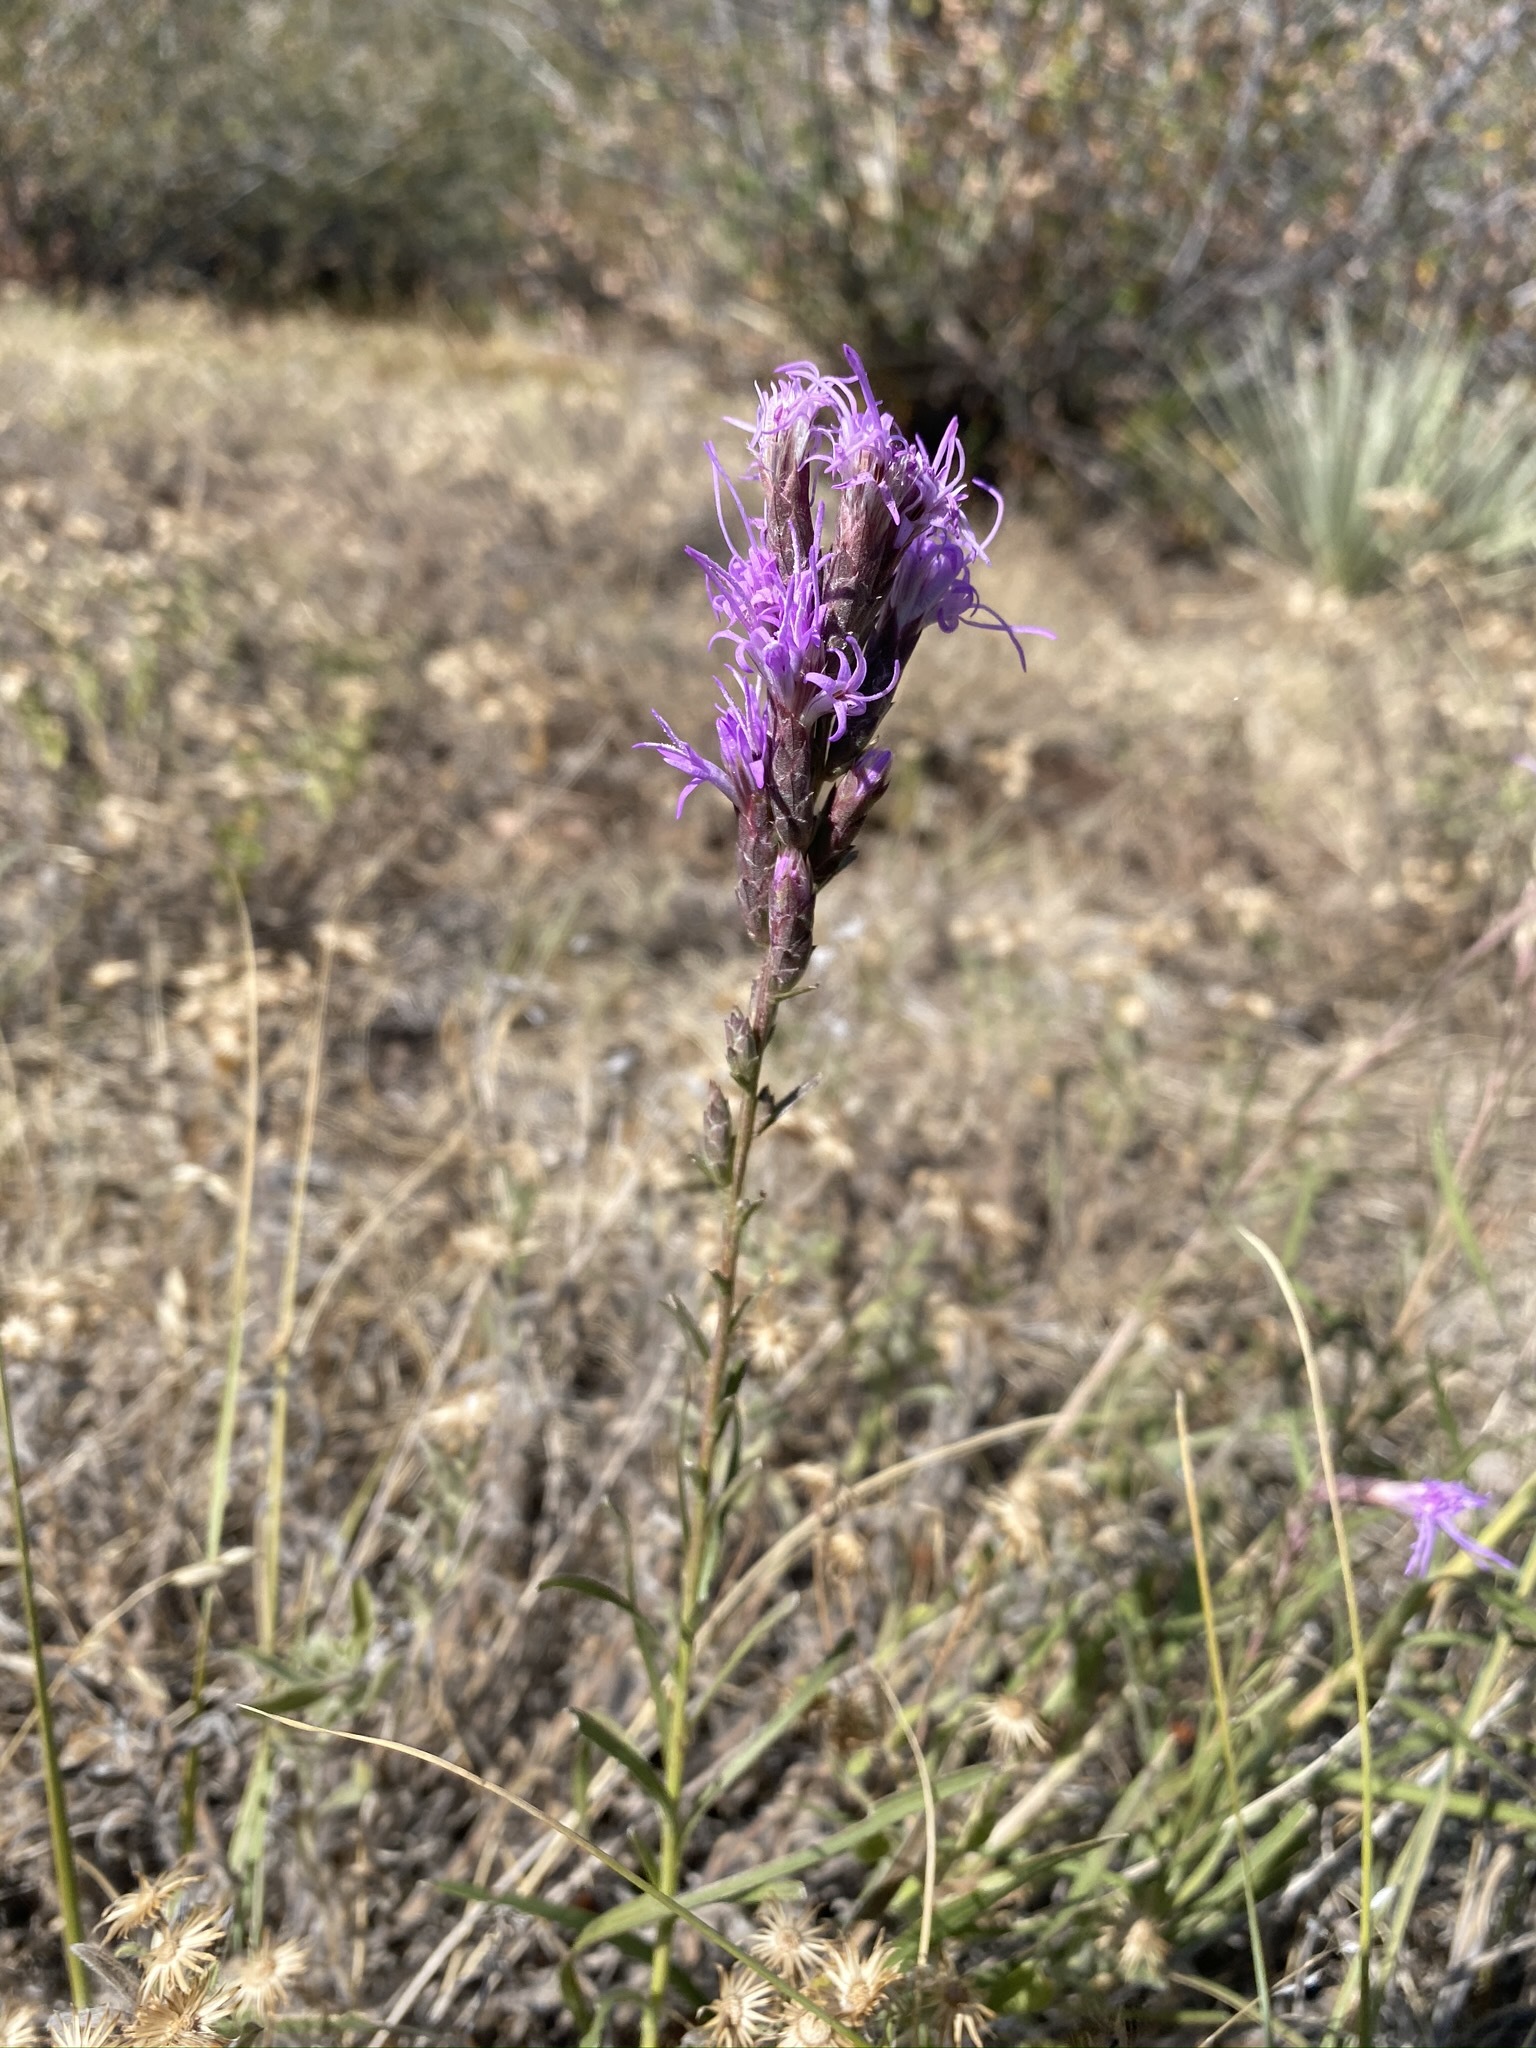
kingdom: Plantae
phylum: Tracheophyta
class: Magnoliopsida
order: Asterales
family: Asteraceae
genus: Liatris
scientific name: Liatris punctata
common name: Dotted gayfeather
